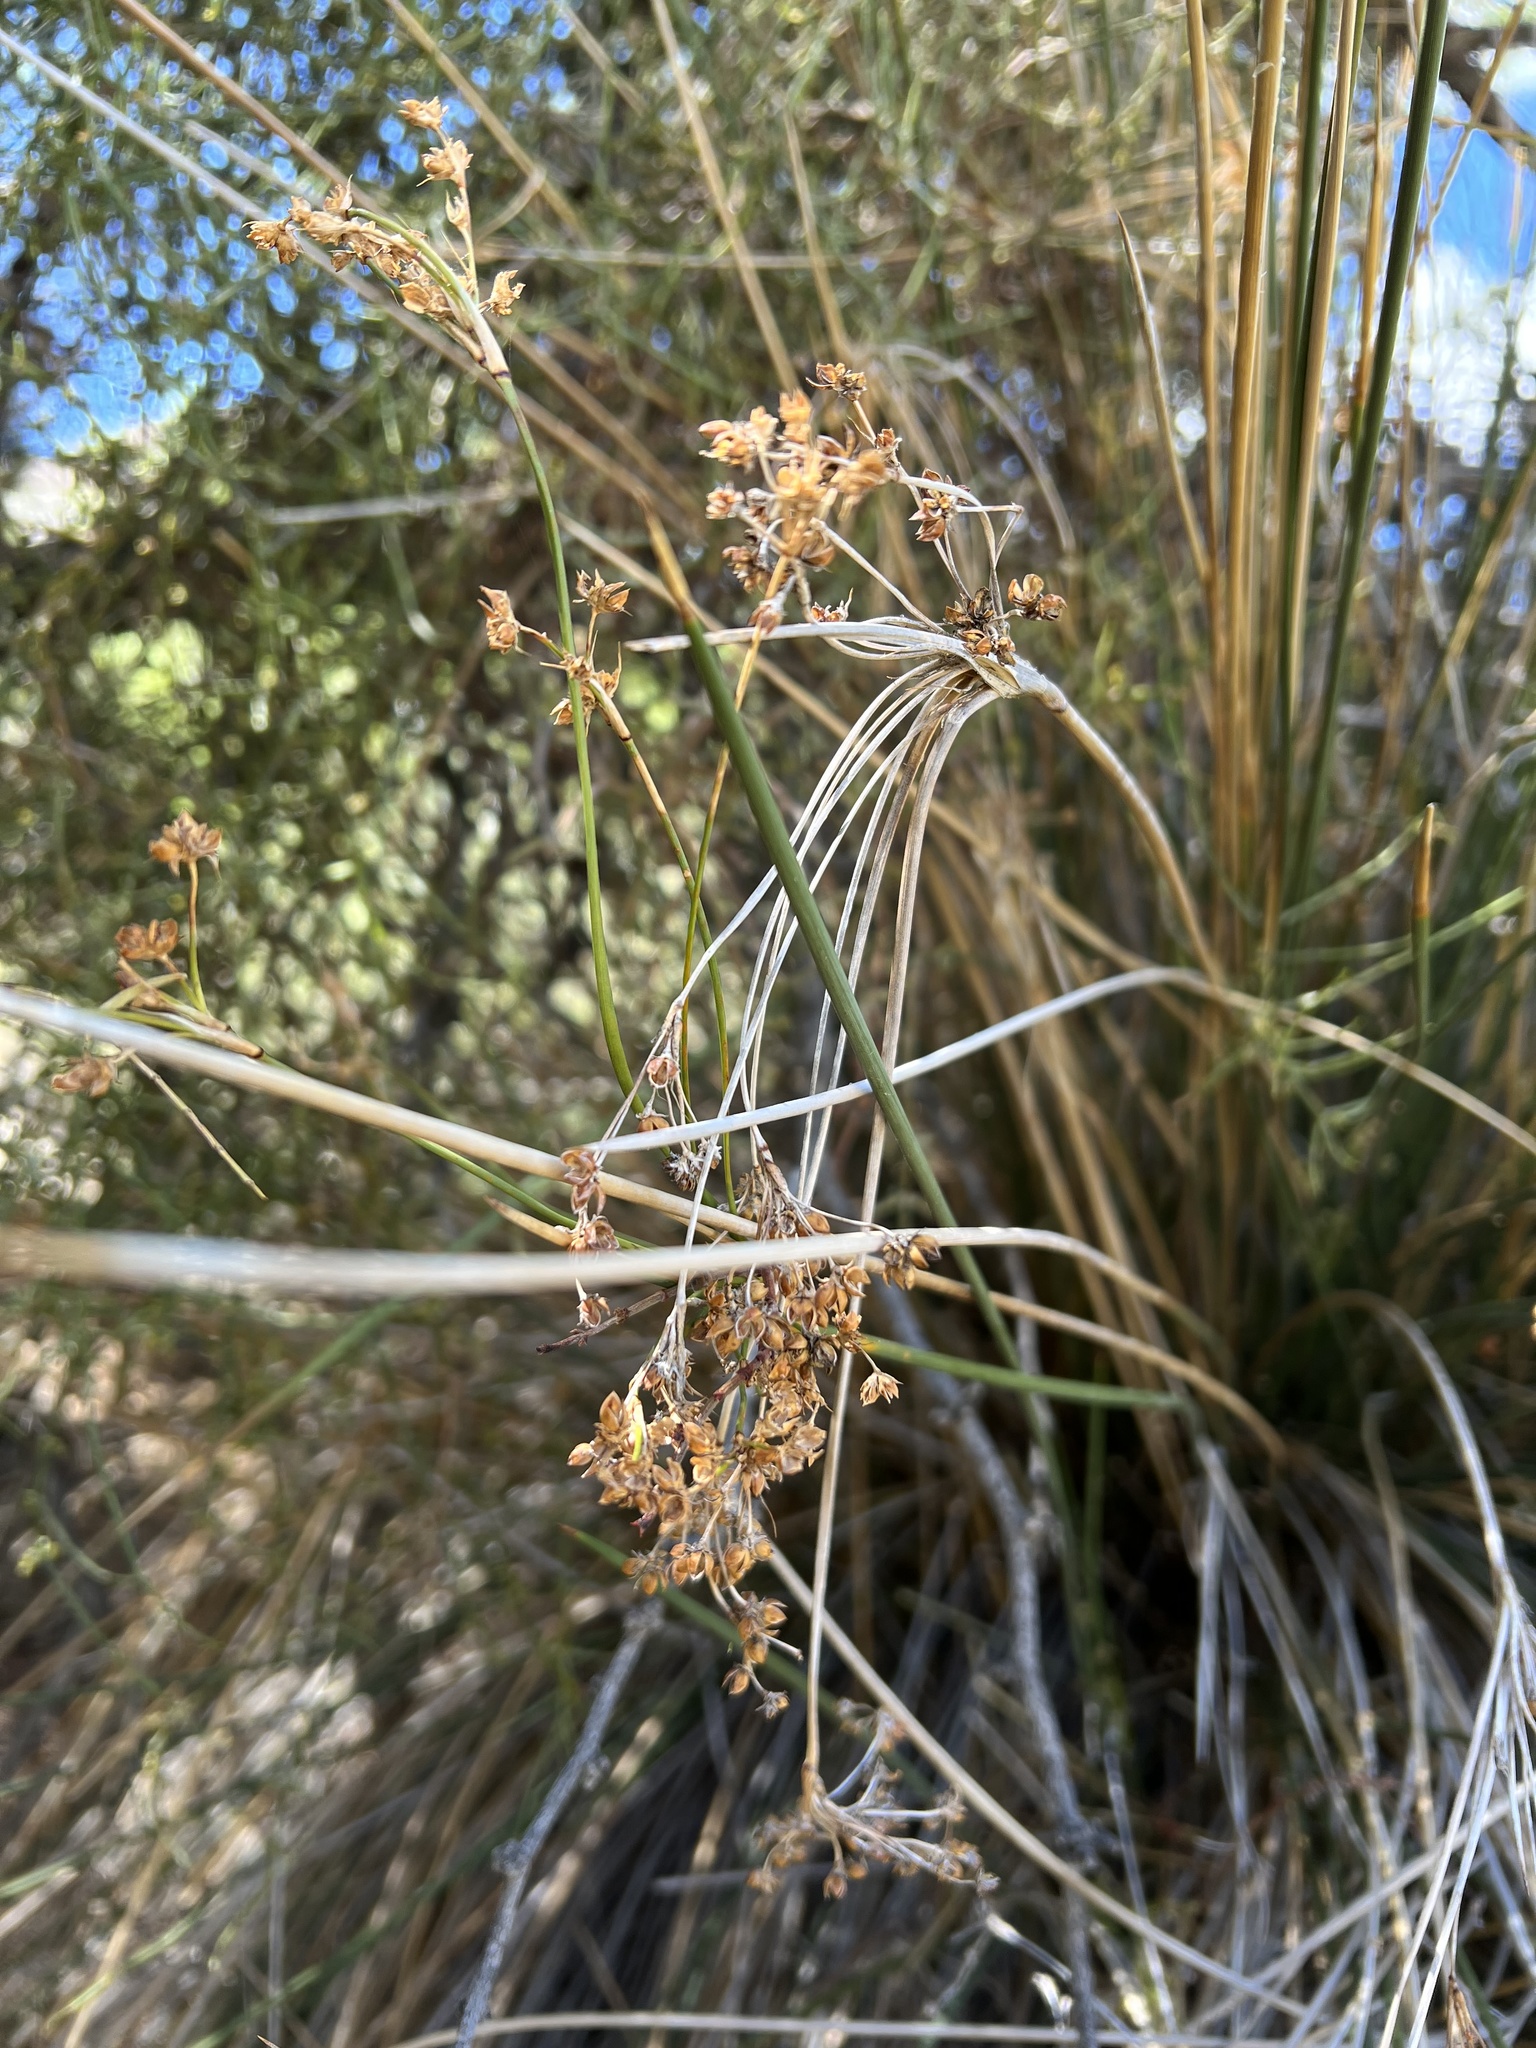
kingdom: Plantae
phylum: Tracheophyta
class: Liliopsida
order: Poales
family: Juncaceae
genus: Juncus
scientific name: Juncus acutus
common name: Sharp rush
